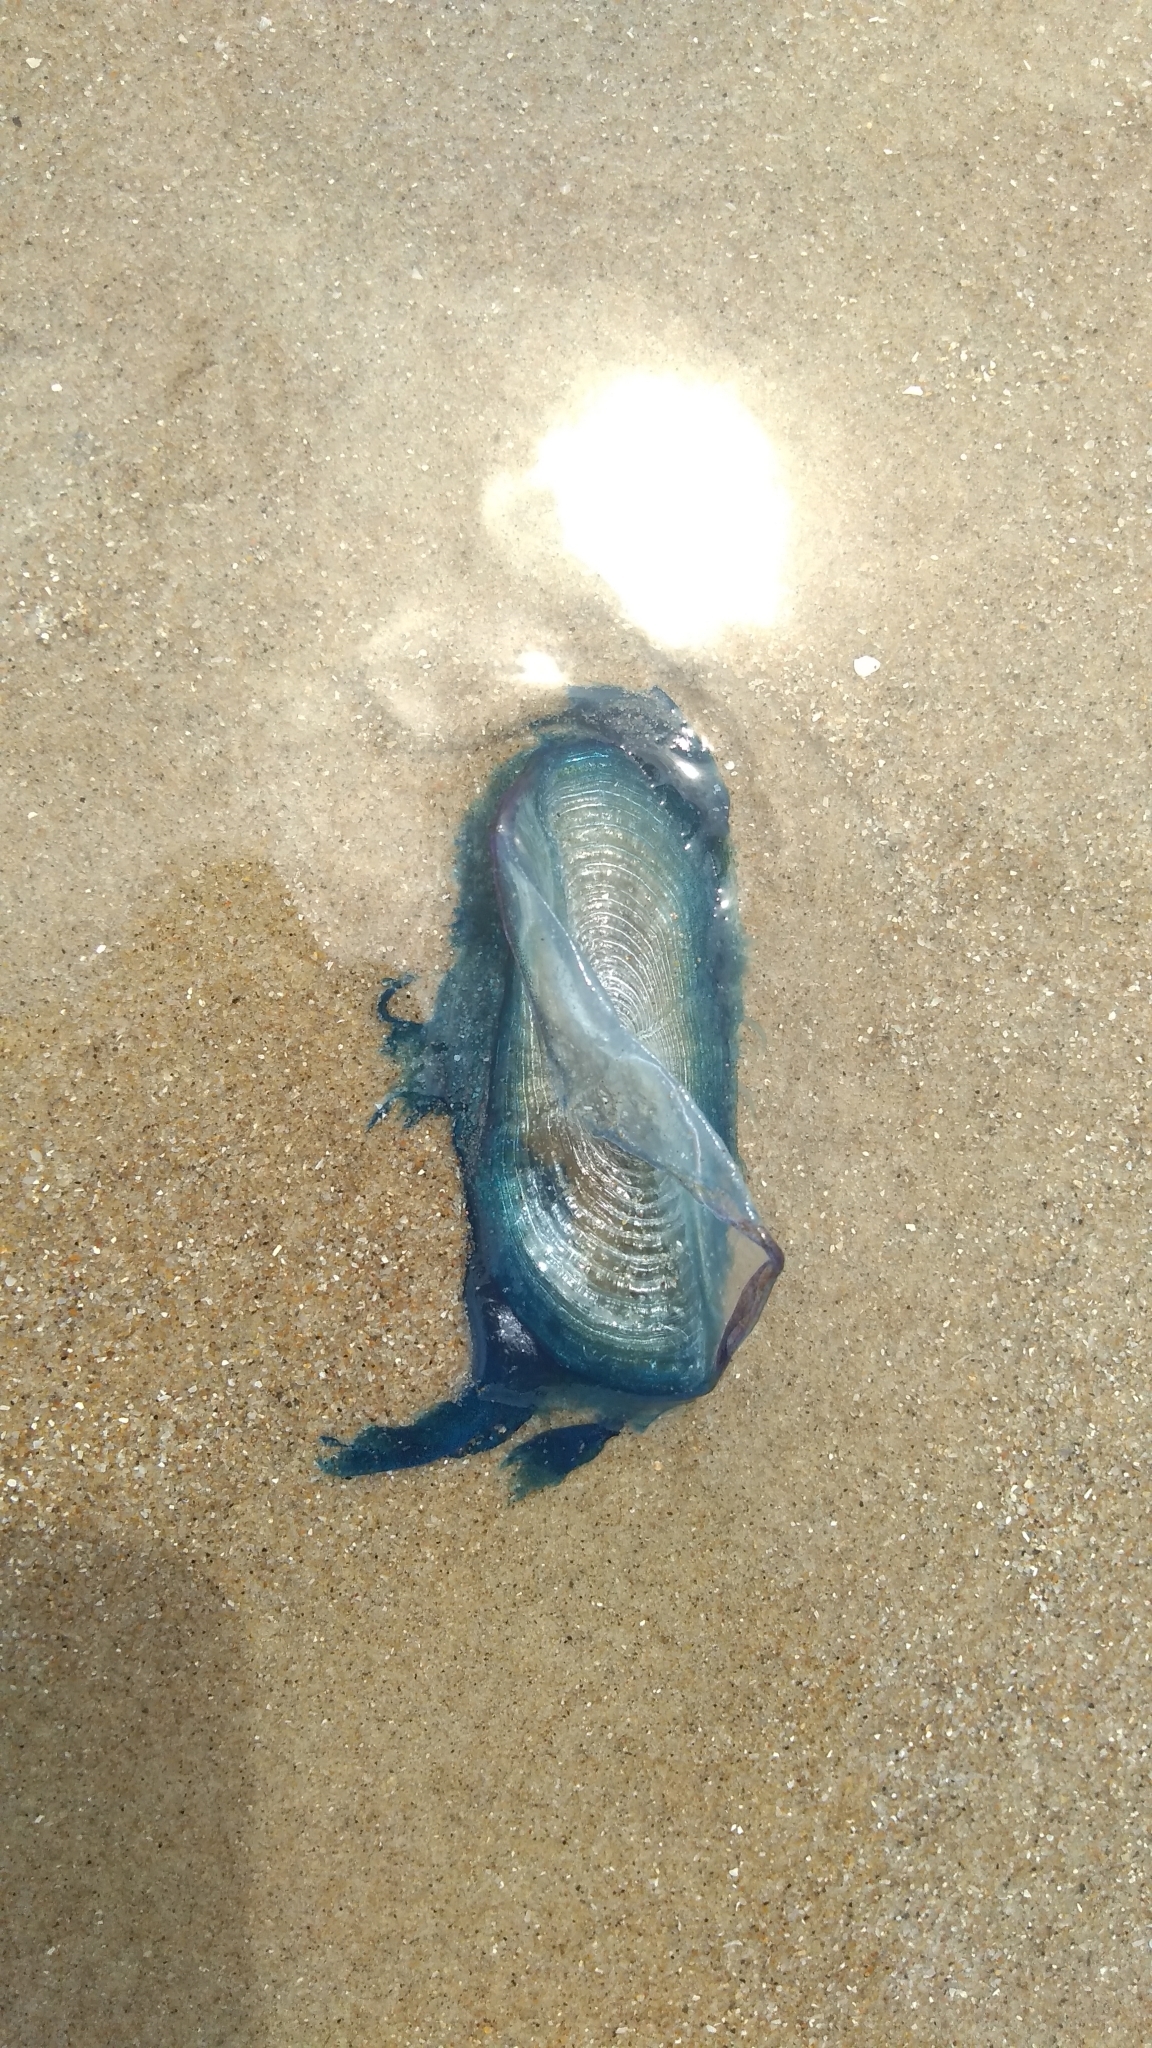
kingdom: Animalia
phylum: Cnidaria
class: Hydrozoa
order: Anthoathecata
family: Porpitidae
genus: Velella
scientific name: Velella velella
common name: By-the-wind-sailor
